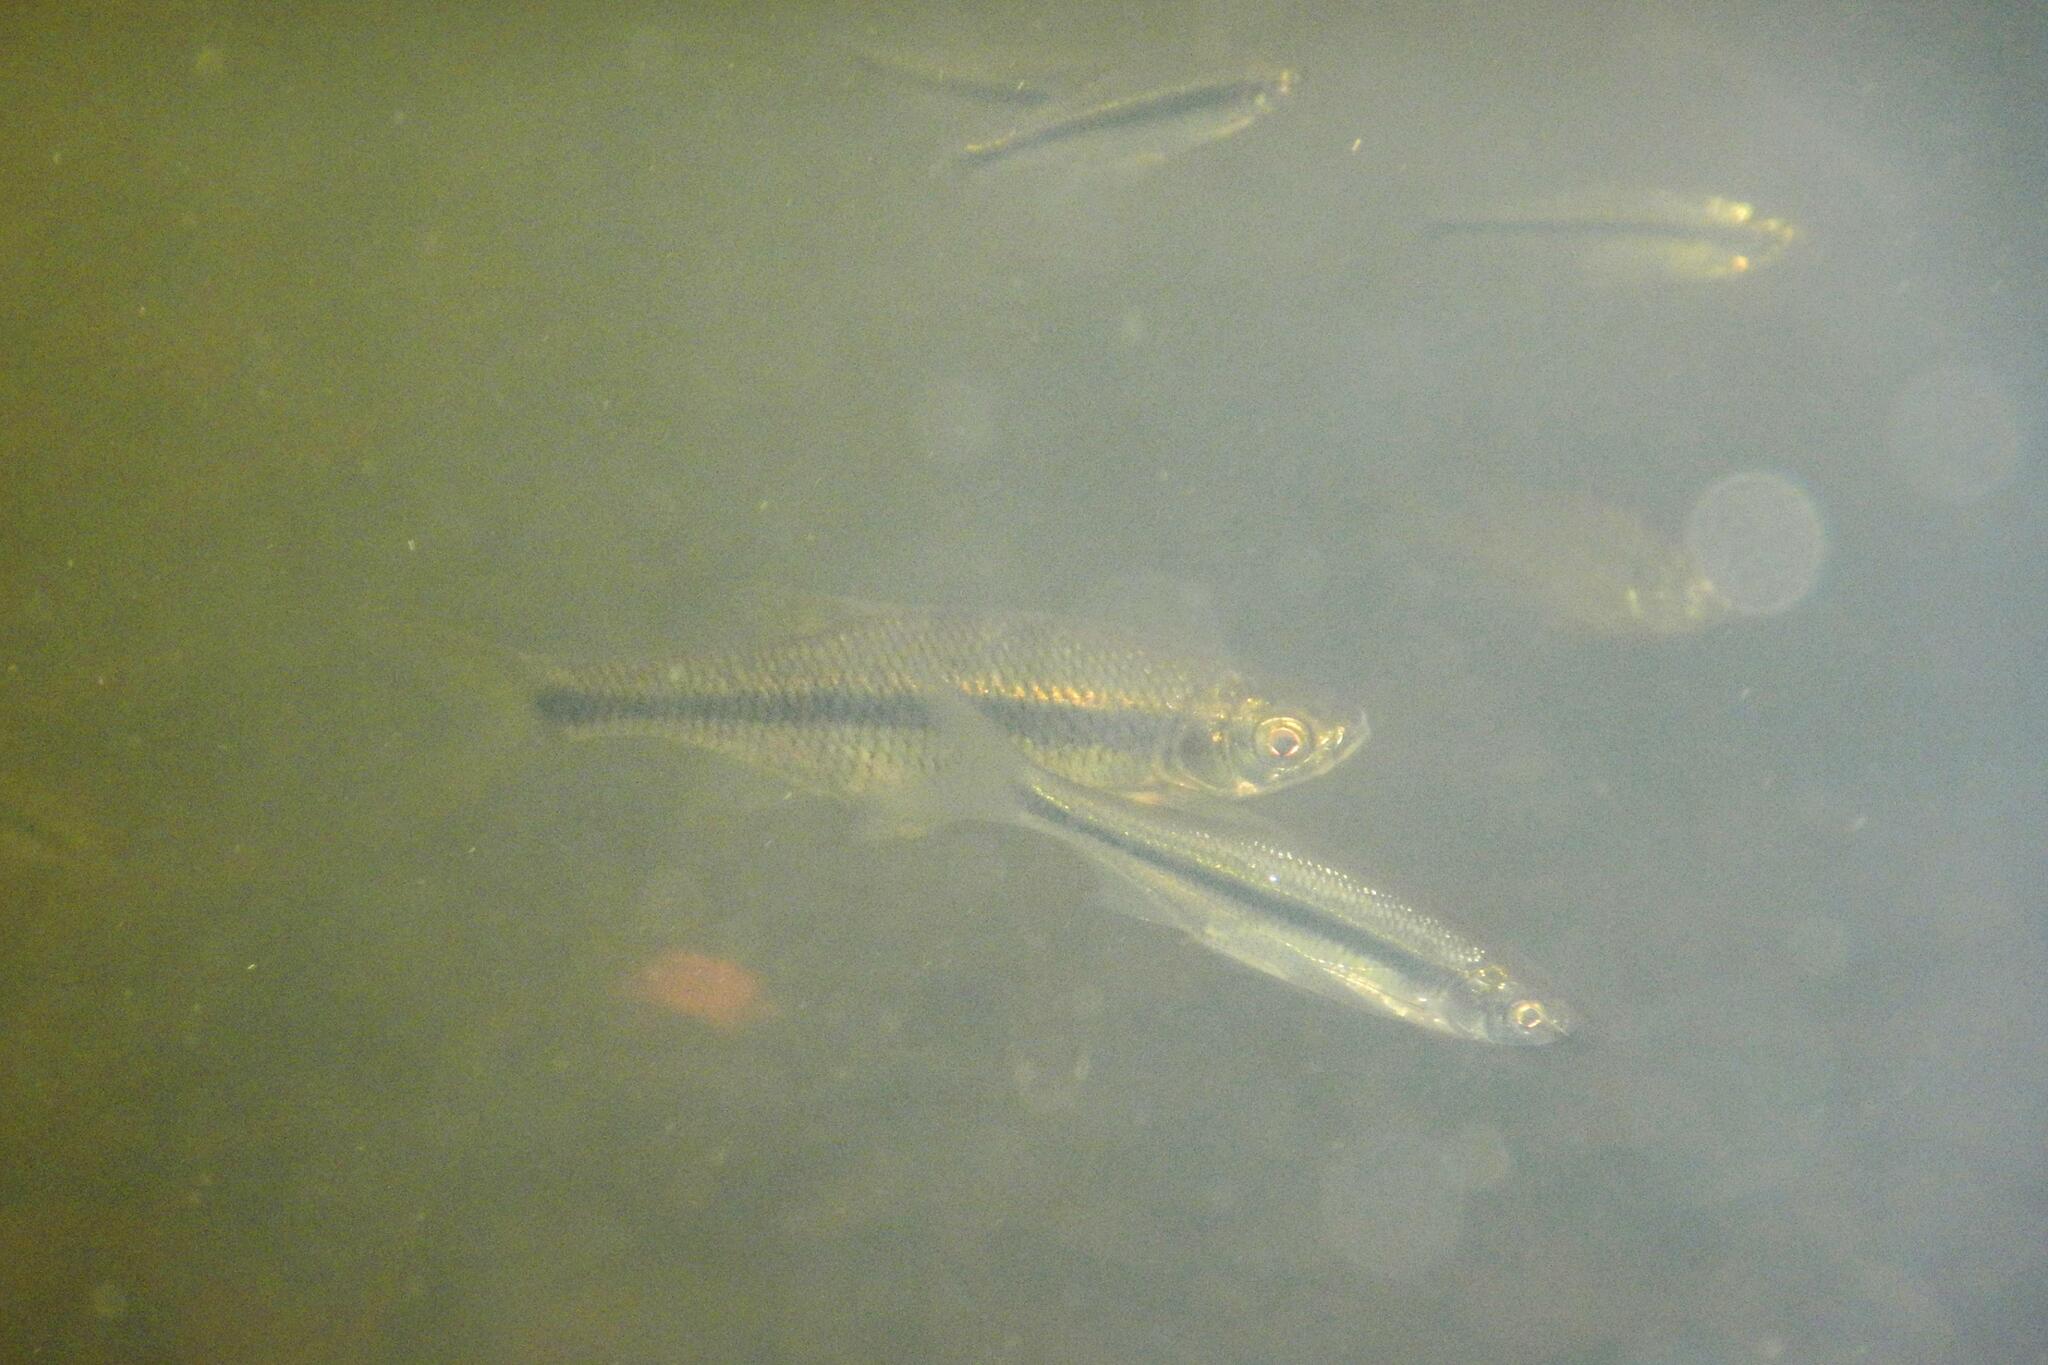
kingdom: Animalia
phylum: Chordata
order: Cypriniformes
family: Cyprinidae
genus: Notemigonus
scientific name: Notemigonus crysoleucas
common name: Golden shiner
